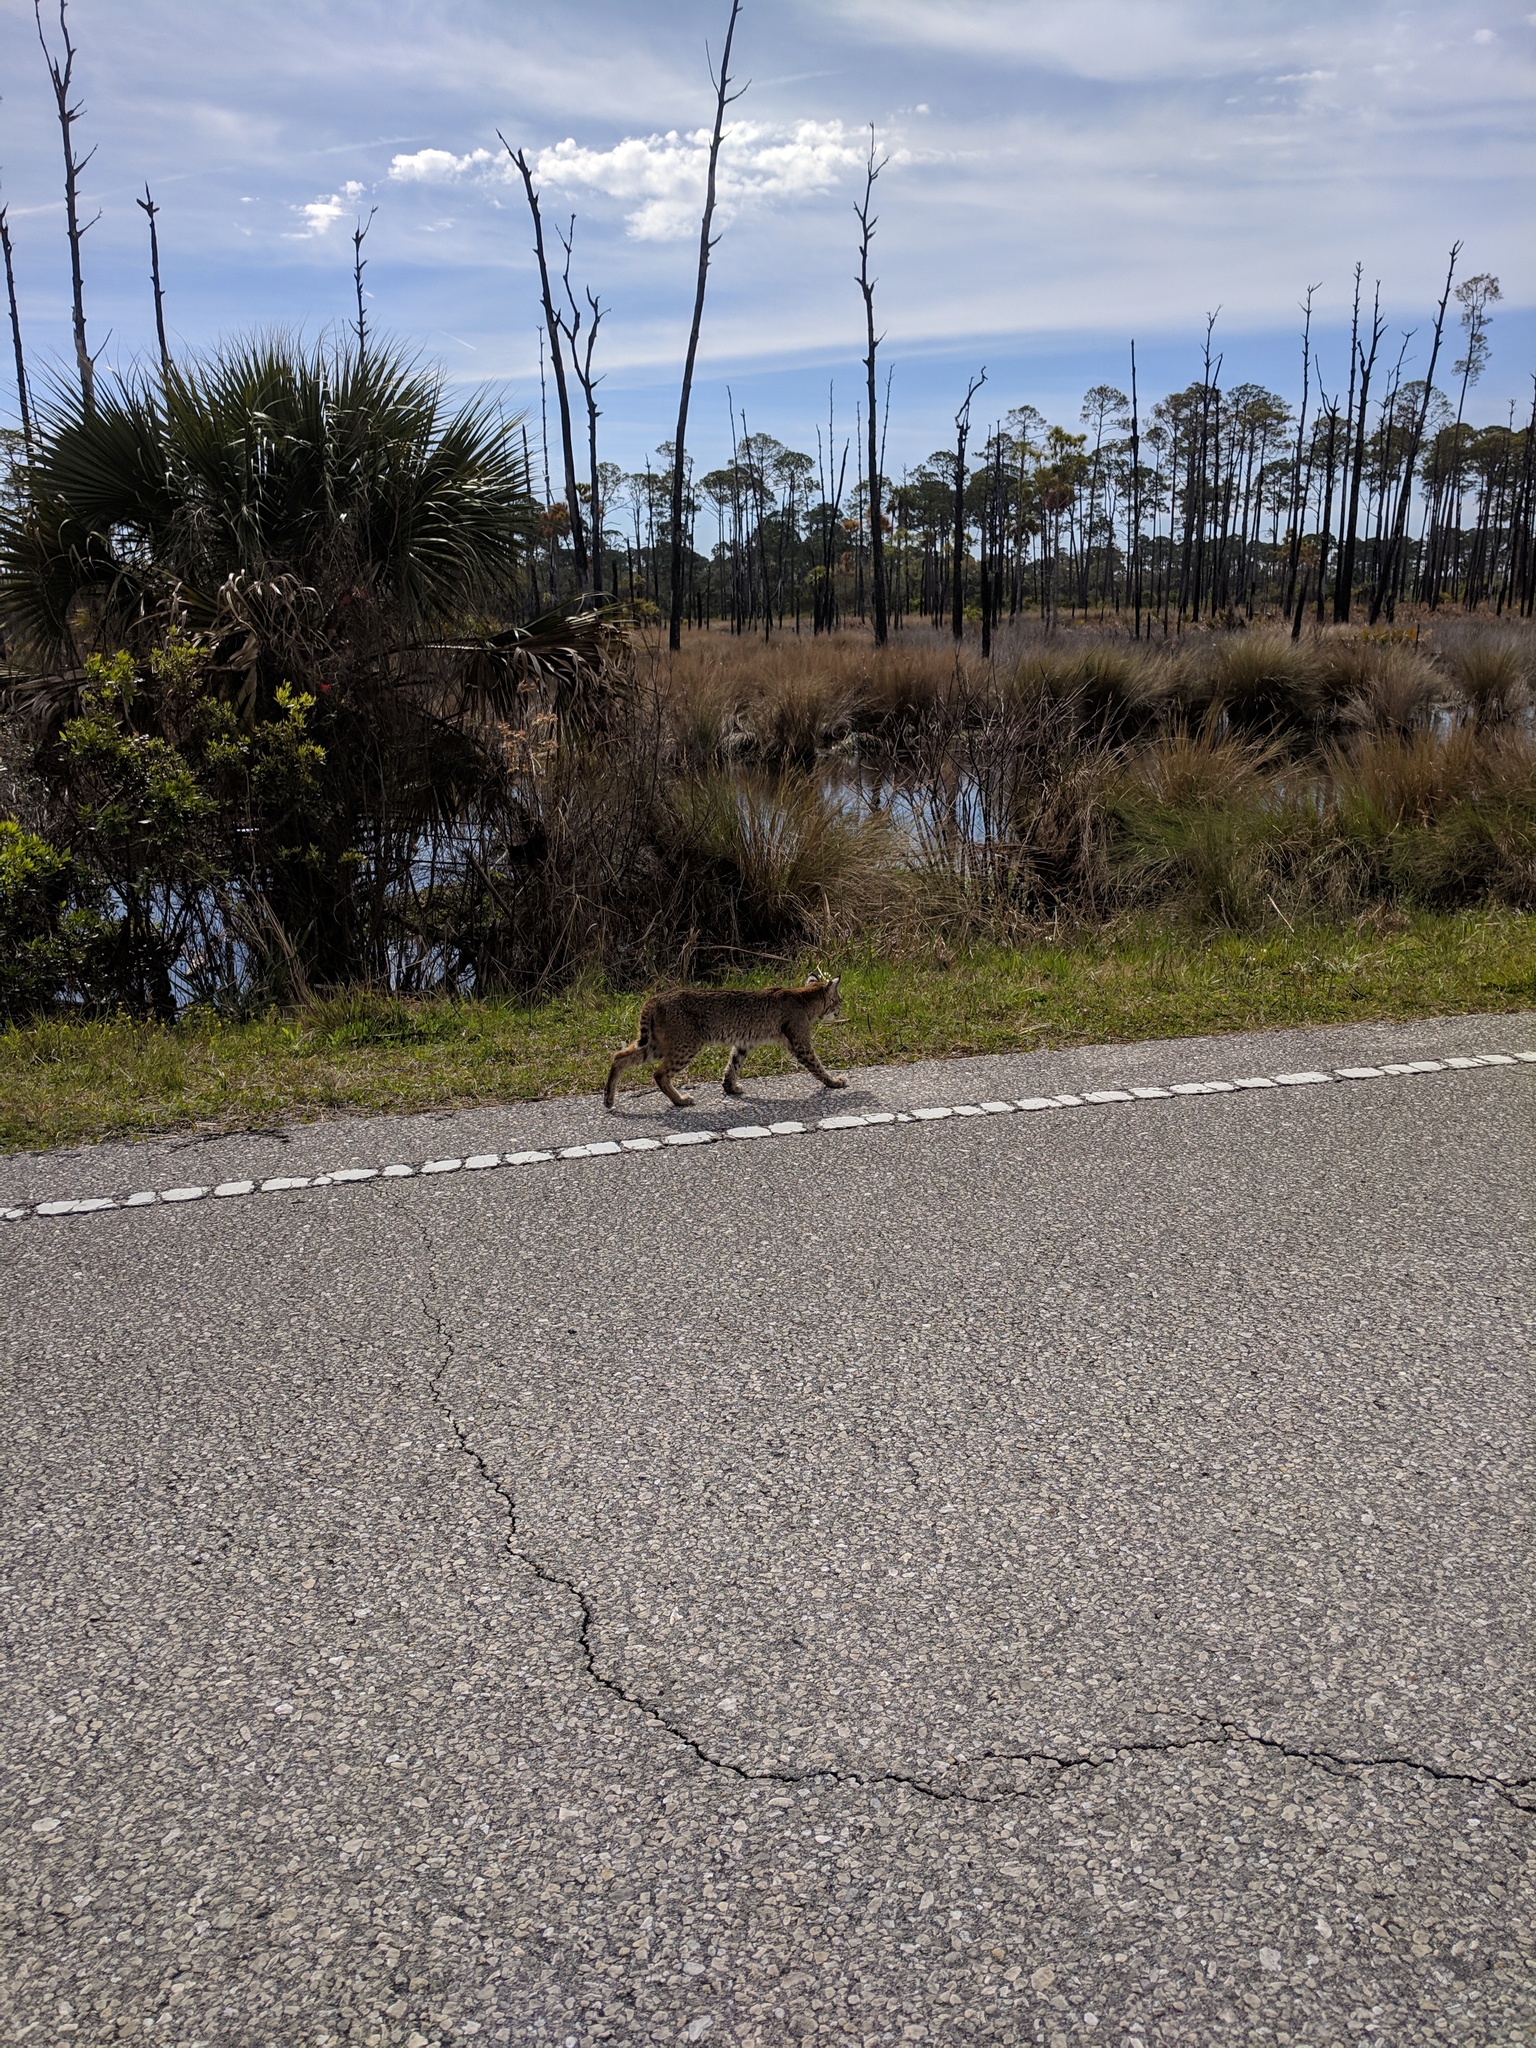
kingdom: Animalia
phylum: Chordata
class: Mammalia
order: Carnivora
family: Felidae
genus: Lynx
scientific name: Lynx rufus
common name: Bobcat
